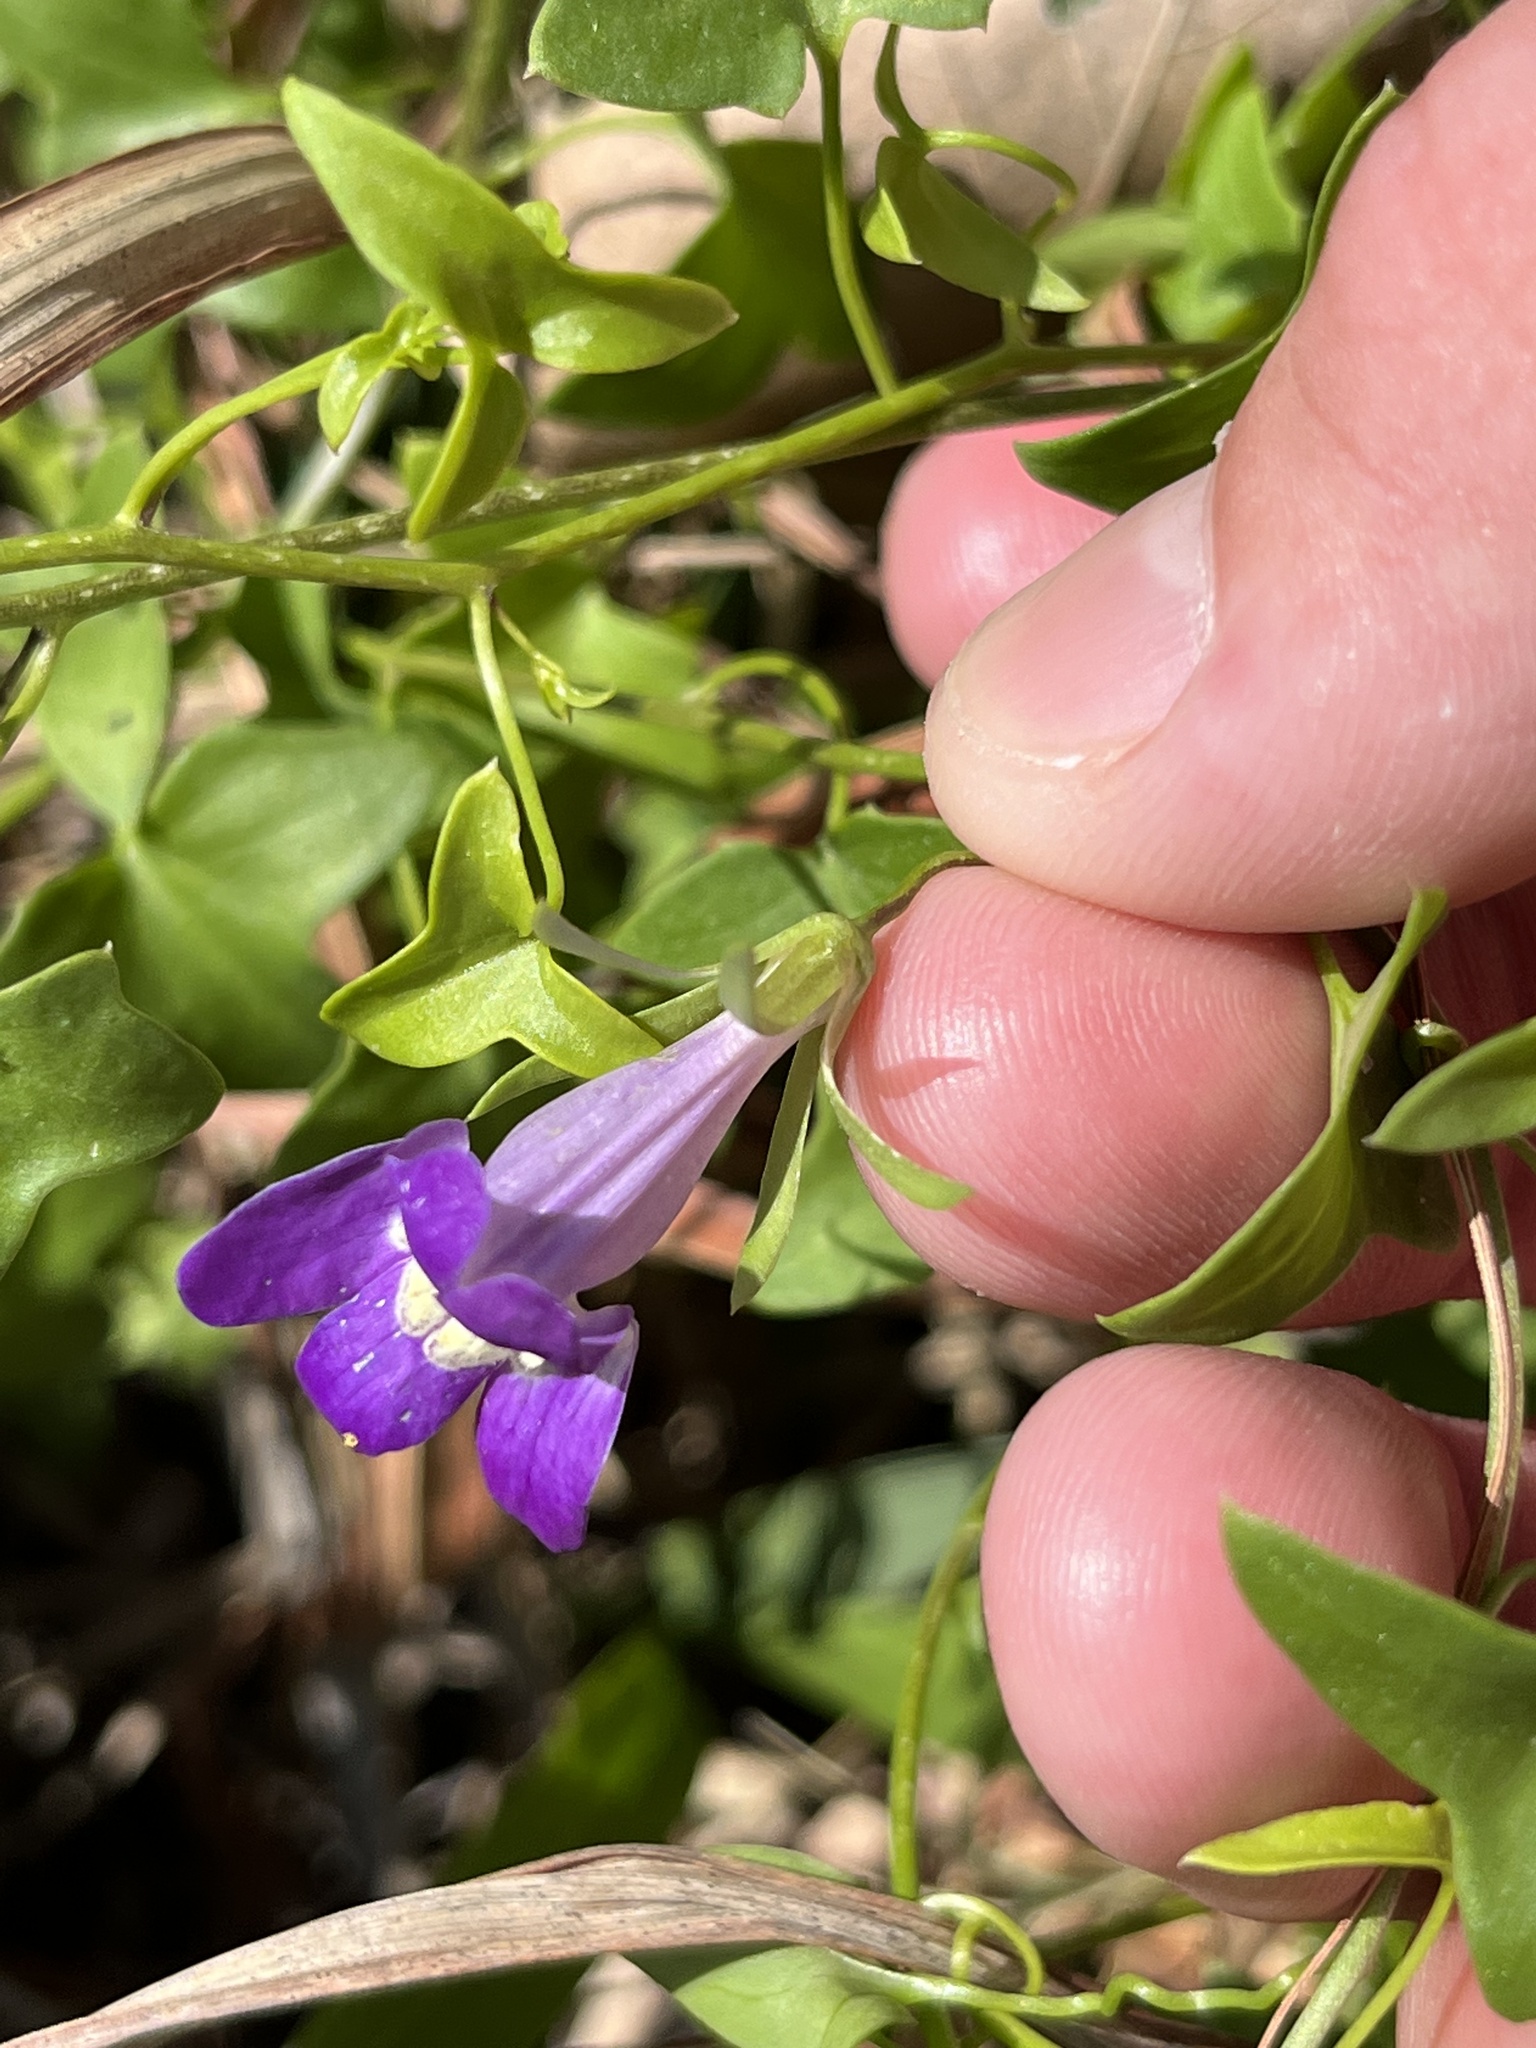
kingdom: Plantae
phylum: Tracheophyta
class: Magnoliopsida
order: Lamiales
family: Plantaginaceae
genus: Maurandella
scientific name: Maurandella antirrhiniflora
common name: Violet twining-snapdragon
